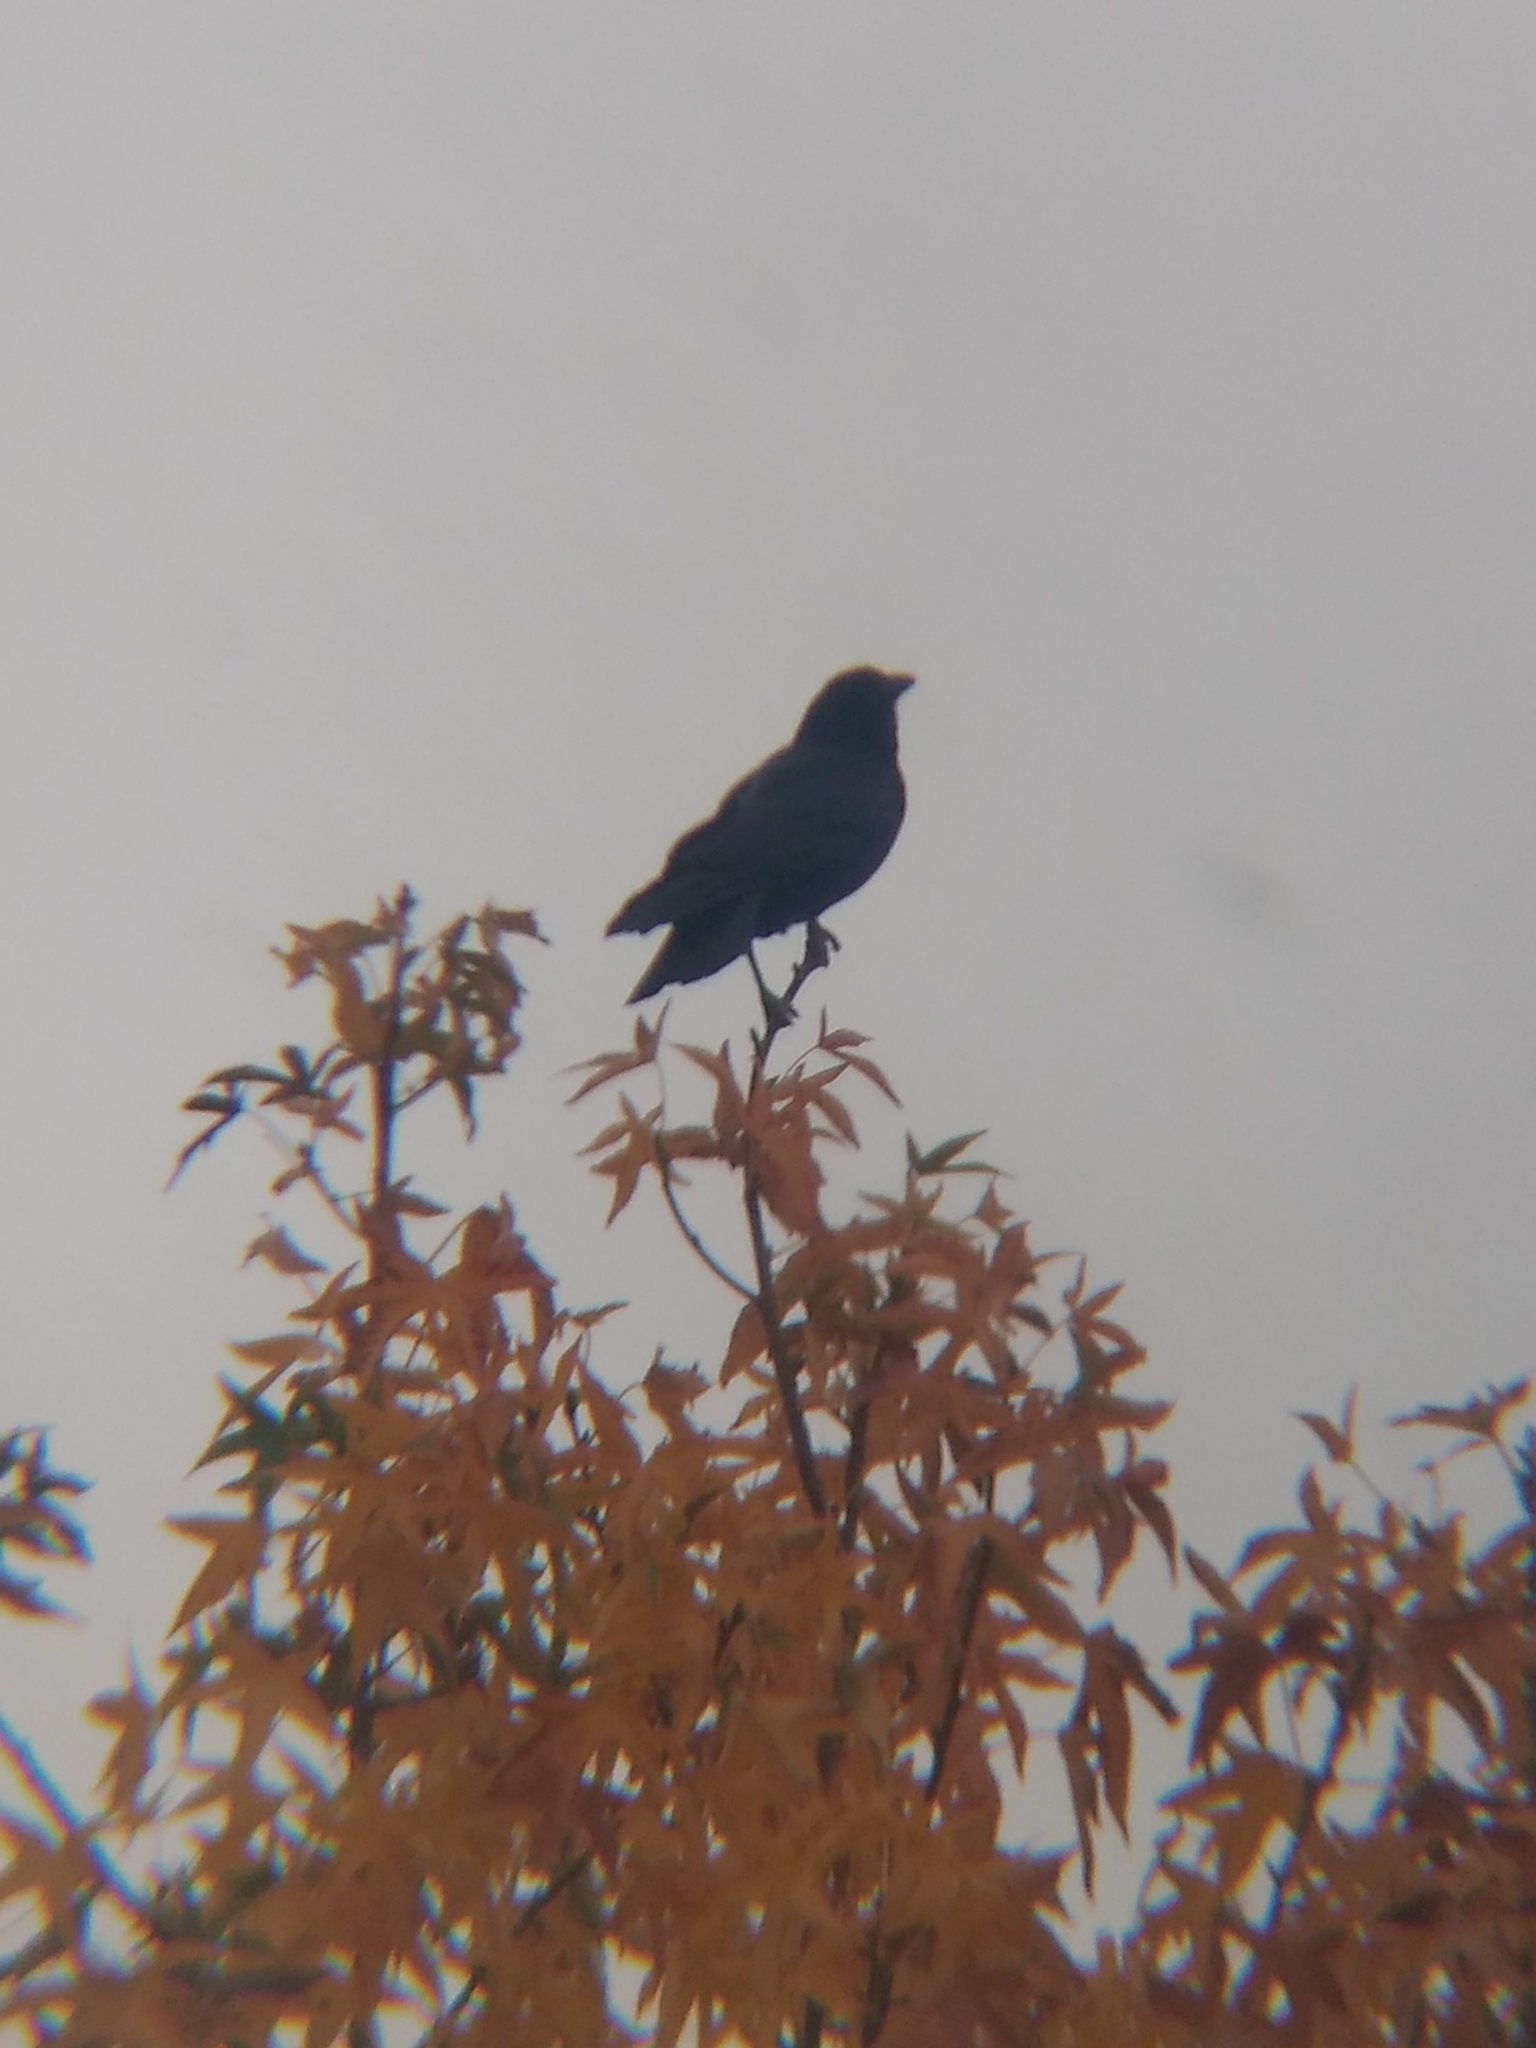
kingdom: Animalia
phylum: Chordata
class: Aves
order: Passeriformes
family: Corvidae
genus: Corvus
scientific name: Corvus brachyrhynchos
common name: American crow
